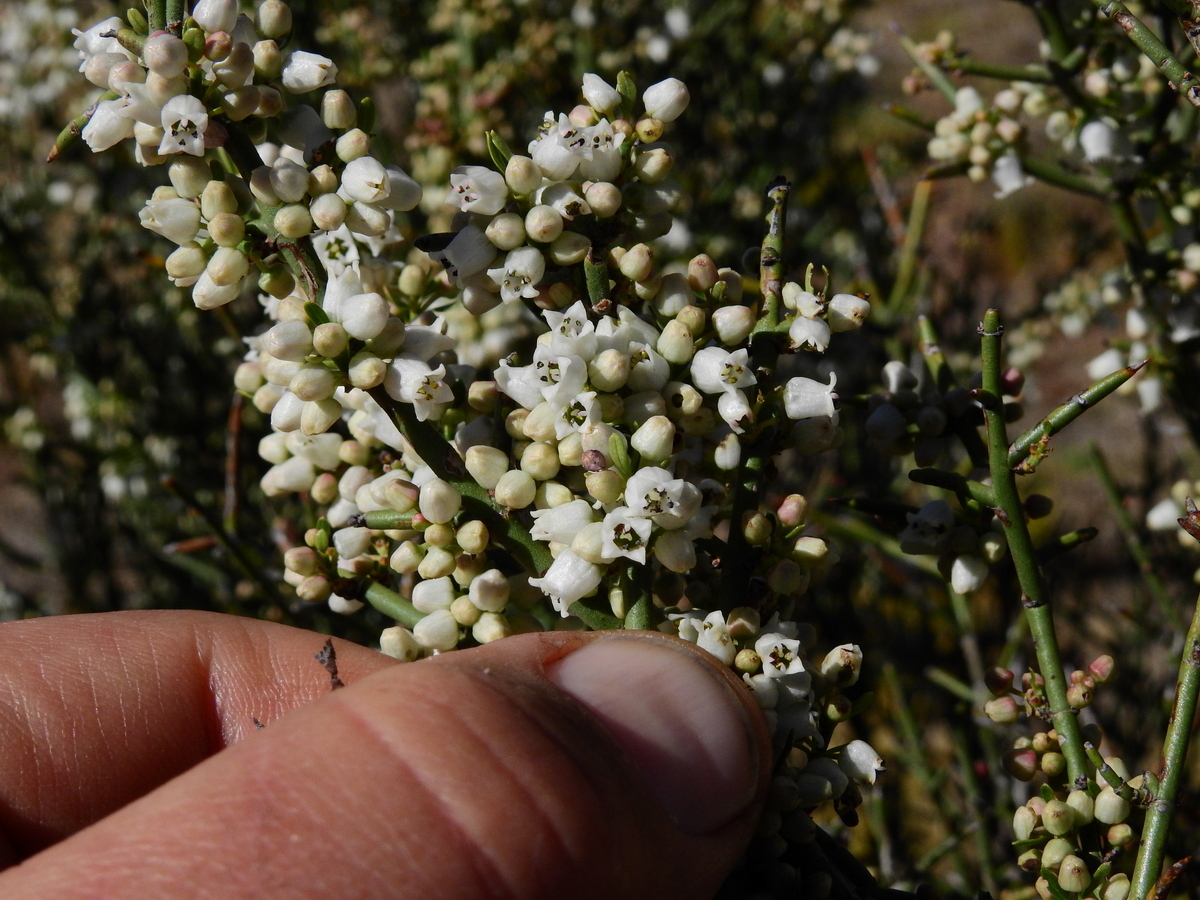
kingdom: Plantae
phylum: Tracheophyta
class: Magnoliopsida
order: Rosales
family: Rhamnaceae
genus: Discaria
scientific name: Discaria americana
